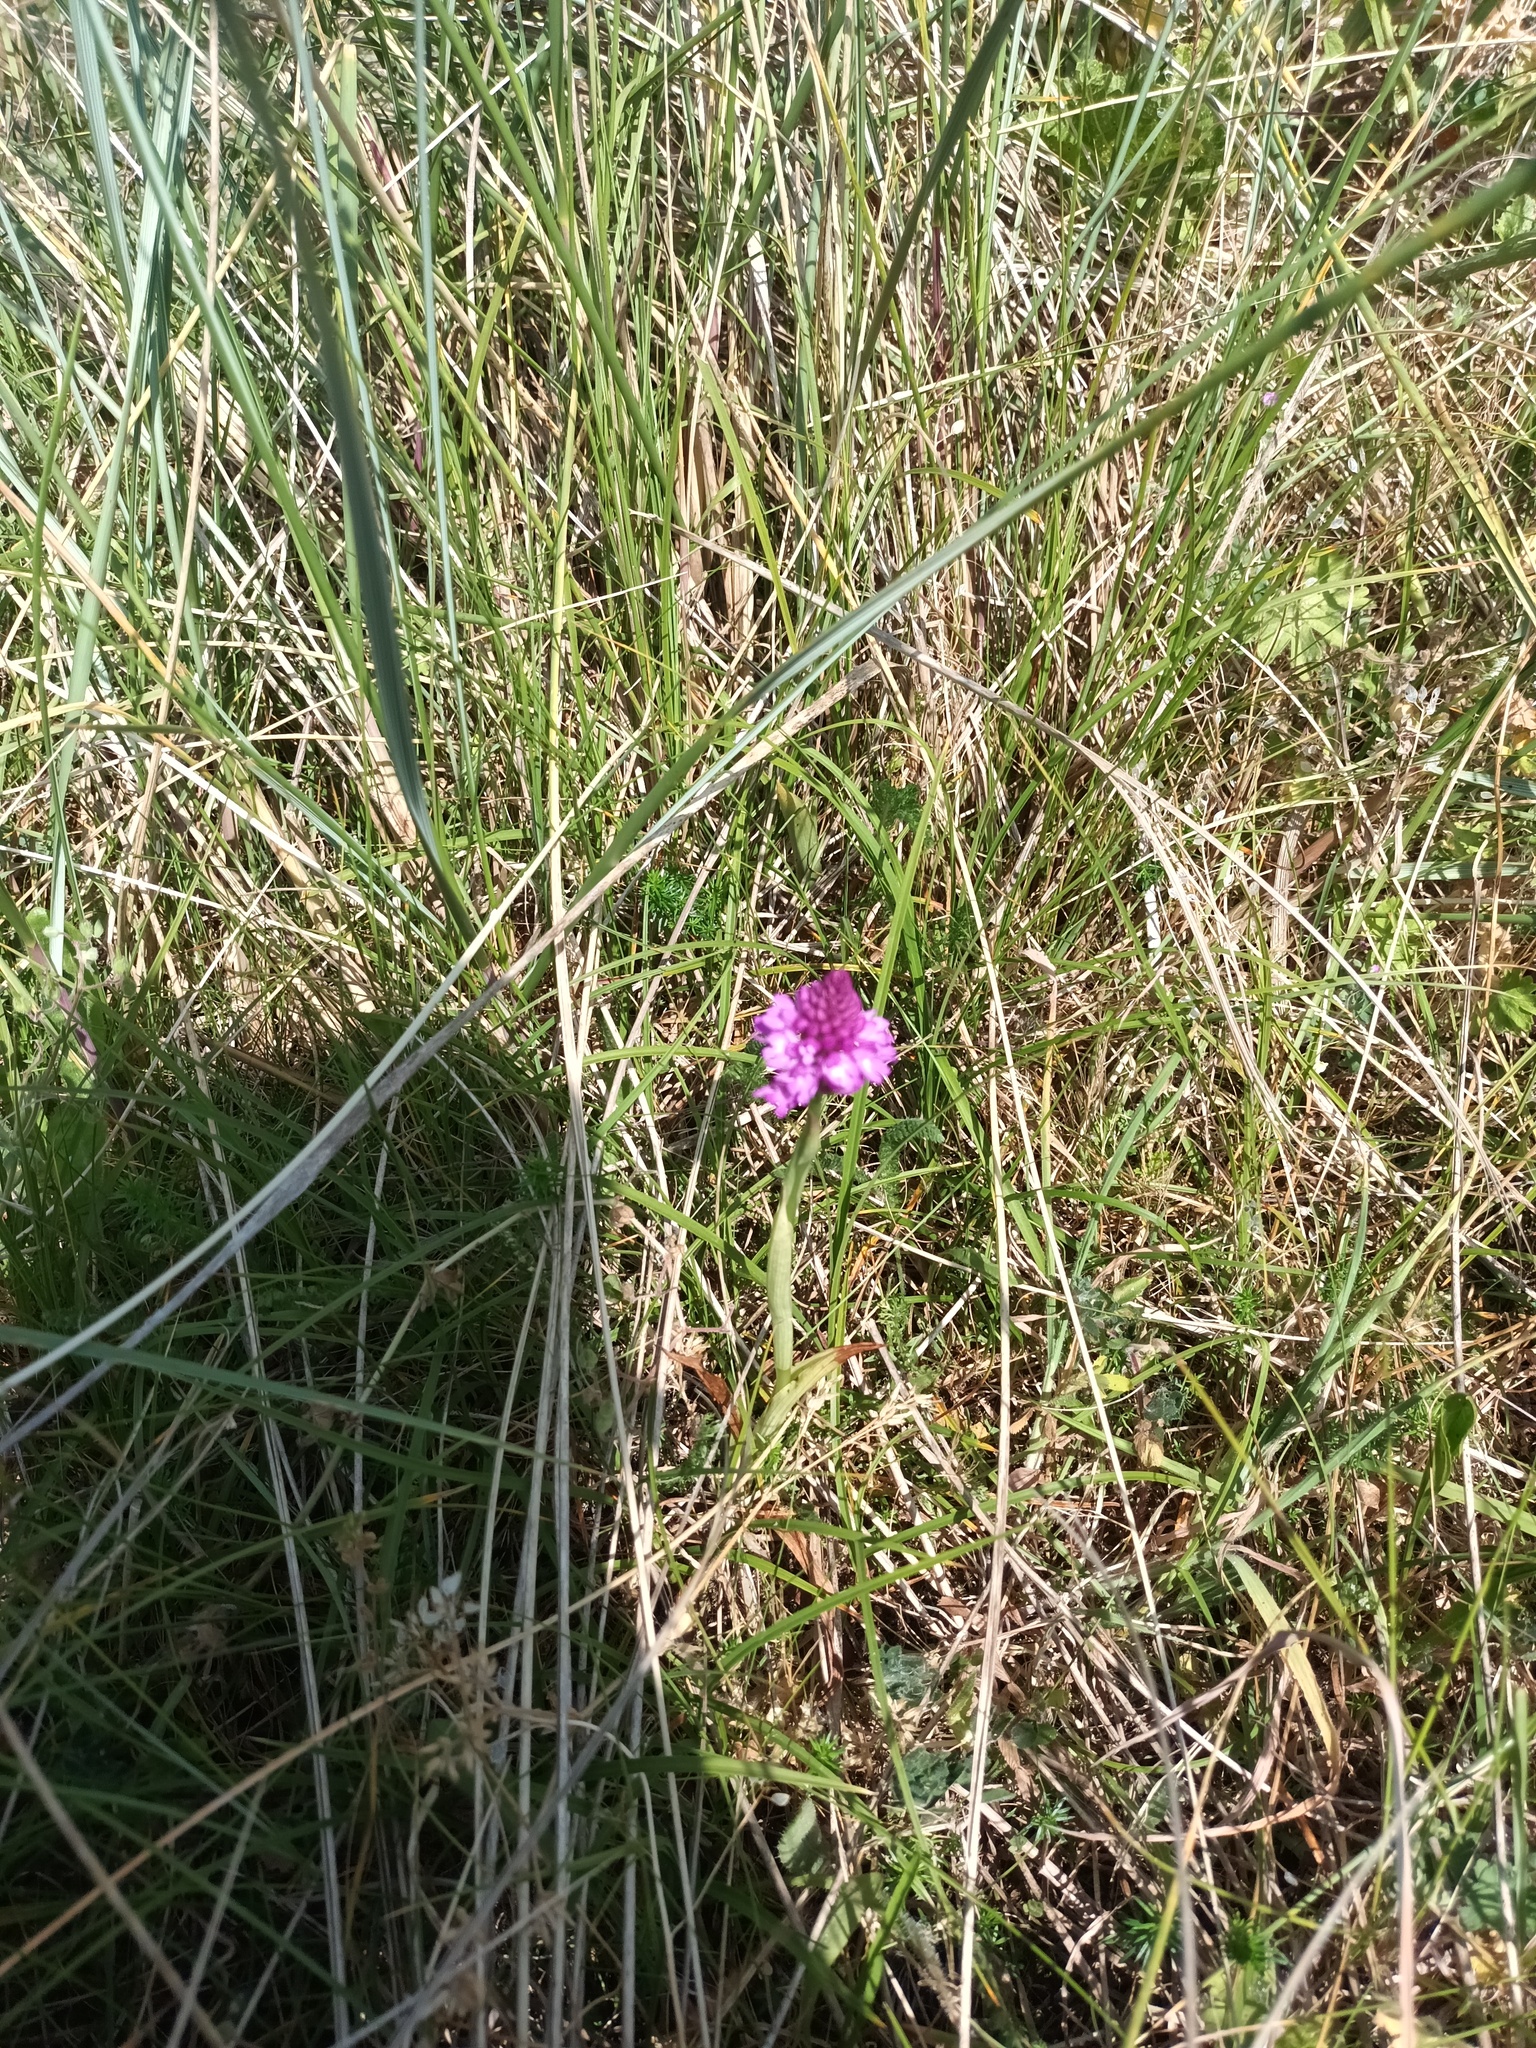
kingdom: Plantae
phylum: Tracheophyta
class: Liliopsida
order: Asparagales
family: Orchidaceae
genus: Anacamptis
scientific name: Anacamptis pyramidalis
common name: Pyramidal orchid
